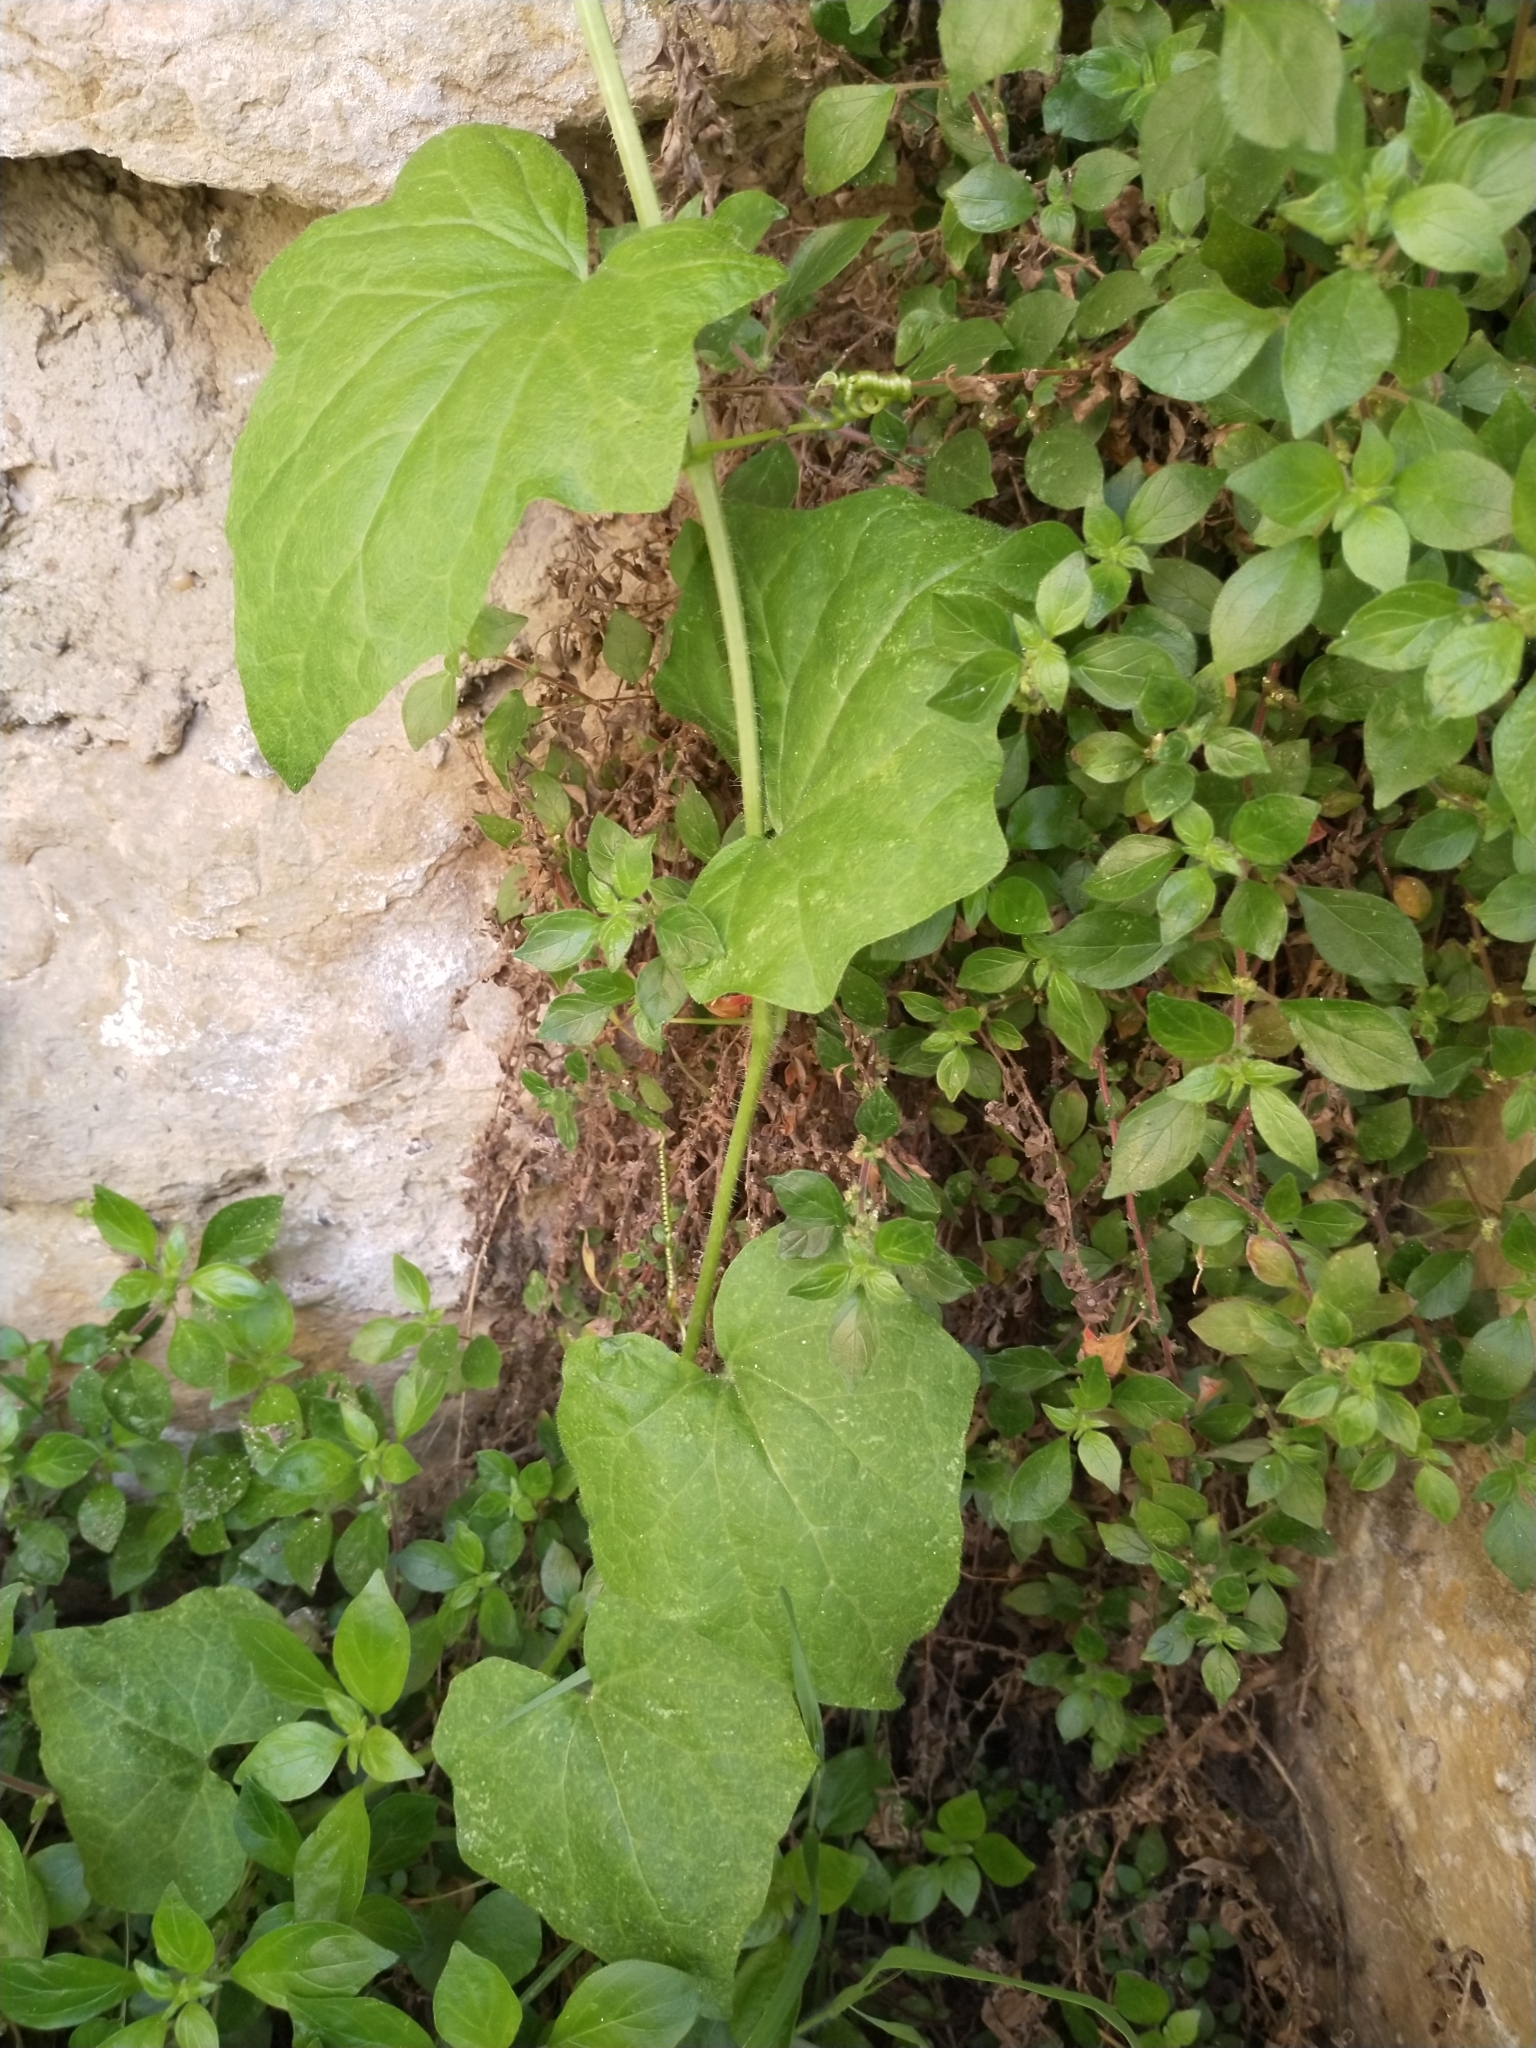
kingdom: Plantae
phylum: Tracheophyta
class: Magnoliopsida
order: Cucurbitales
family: Cucurbitaceae
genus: Bryonia
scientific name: Bryonia cretica
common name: Cretan bryony
